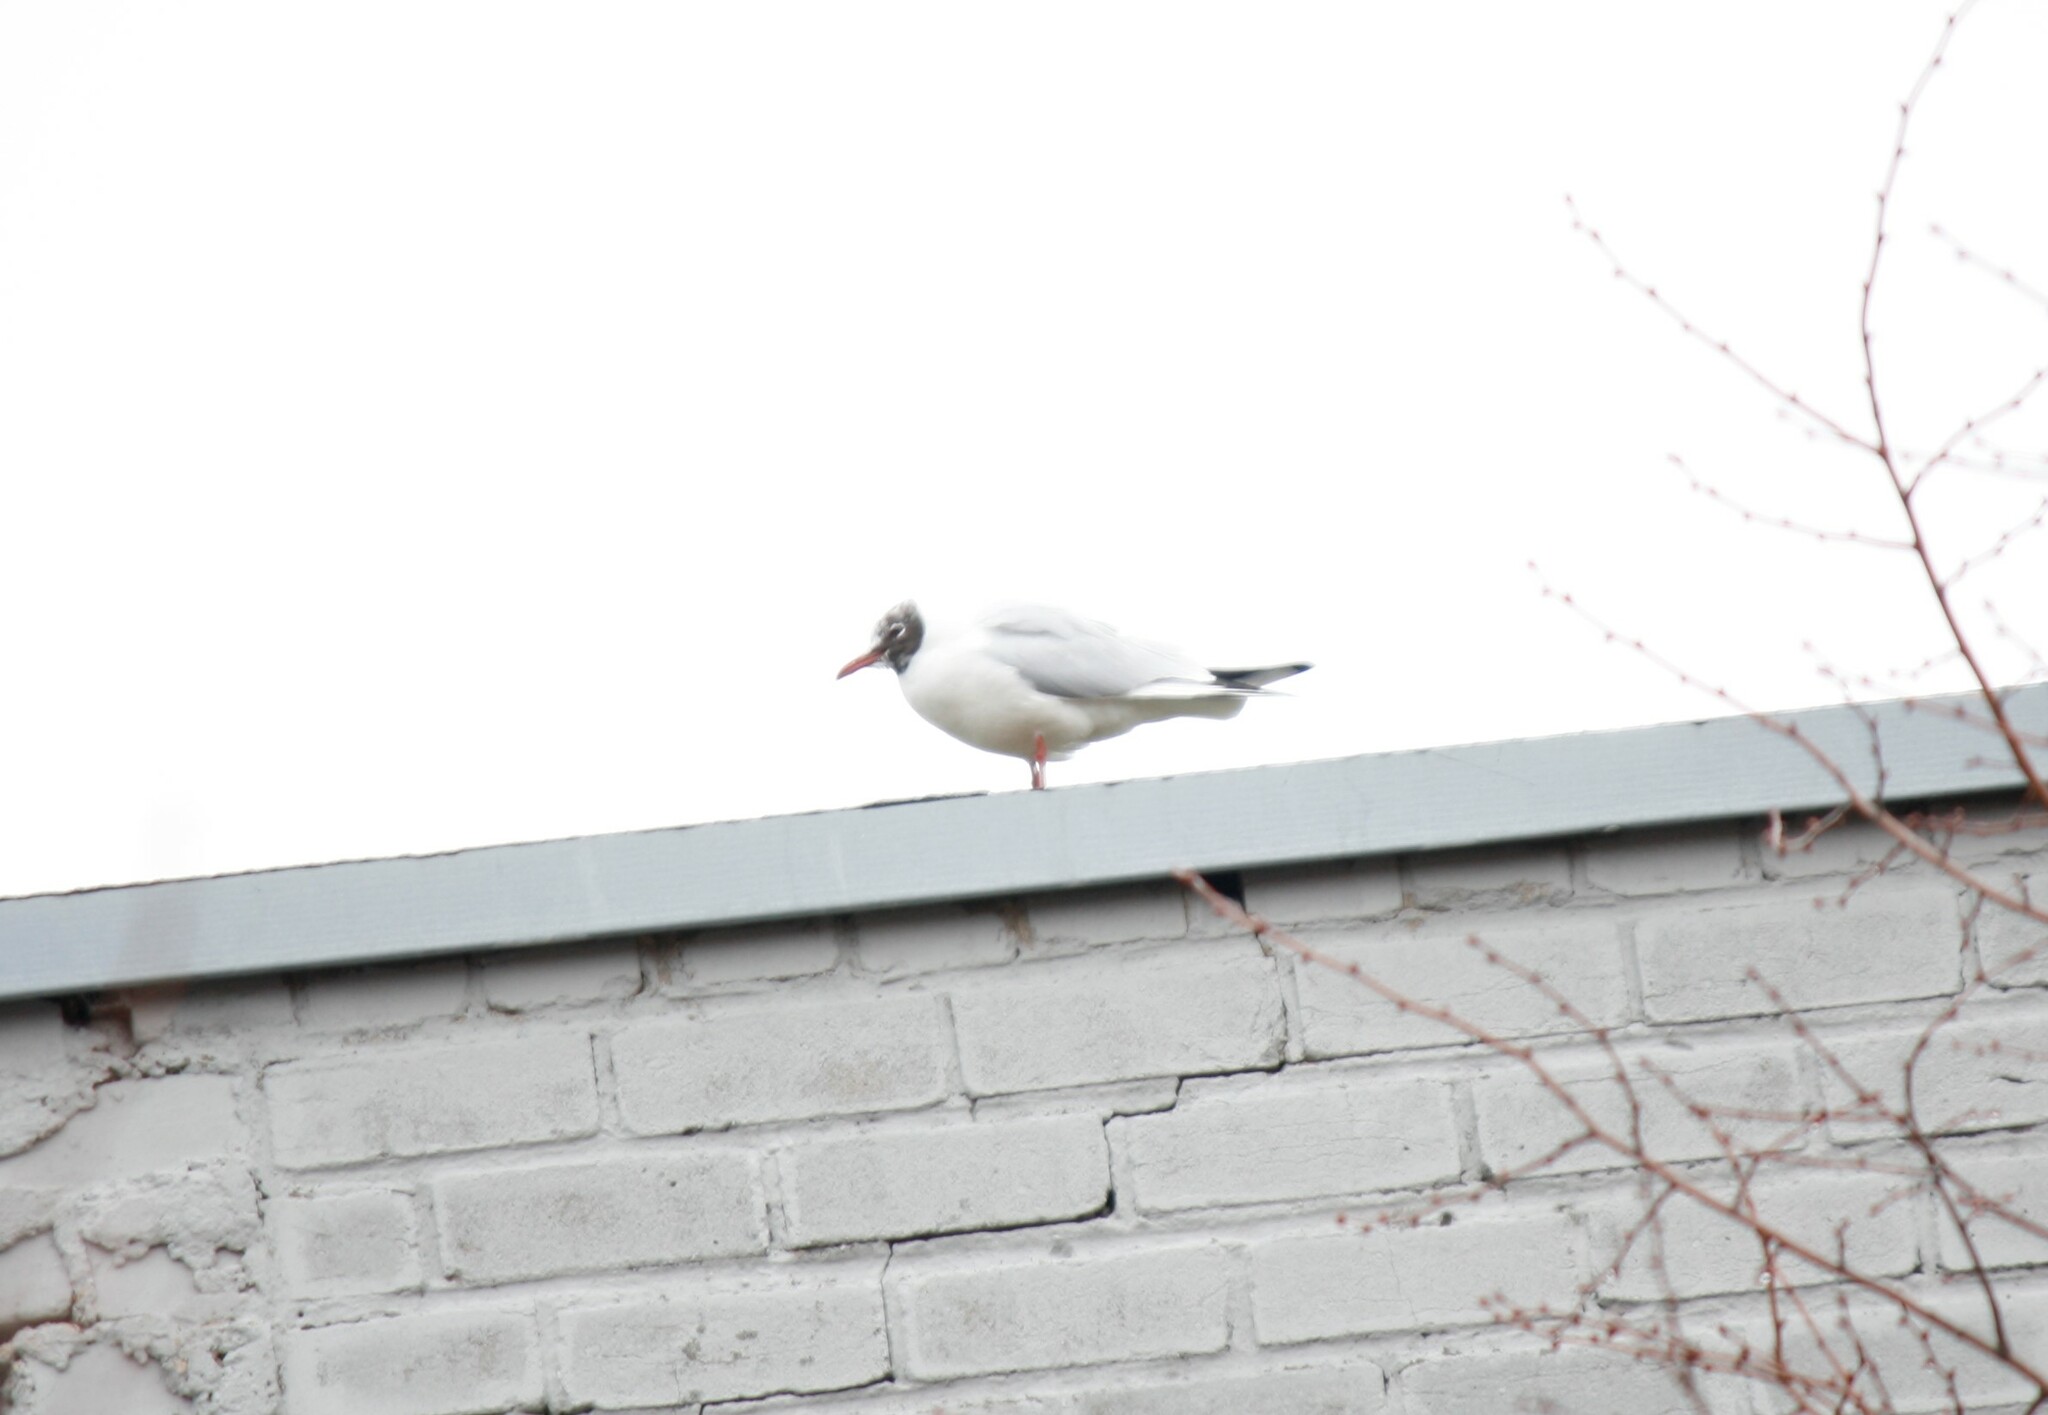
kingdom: Animalia
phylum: Chordata
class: Aves
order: Charadriiformes
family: Laridae
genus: Chroicocephalus
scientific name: Chroicocephalus ridibundus
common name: Black-headed gull
